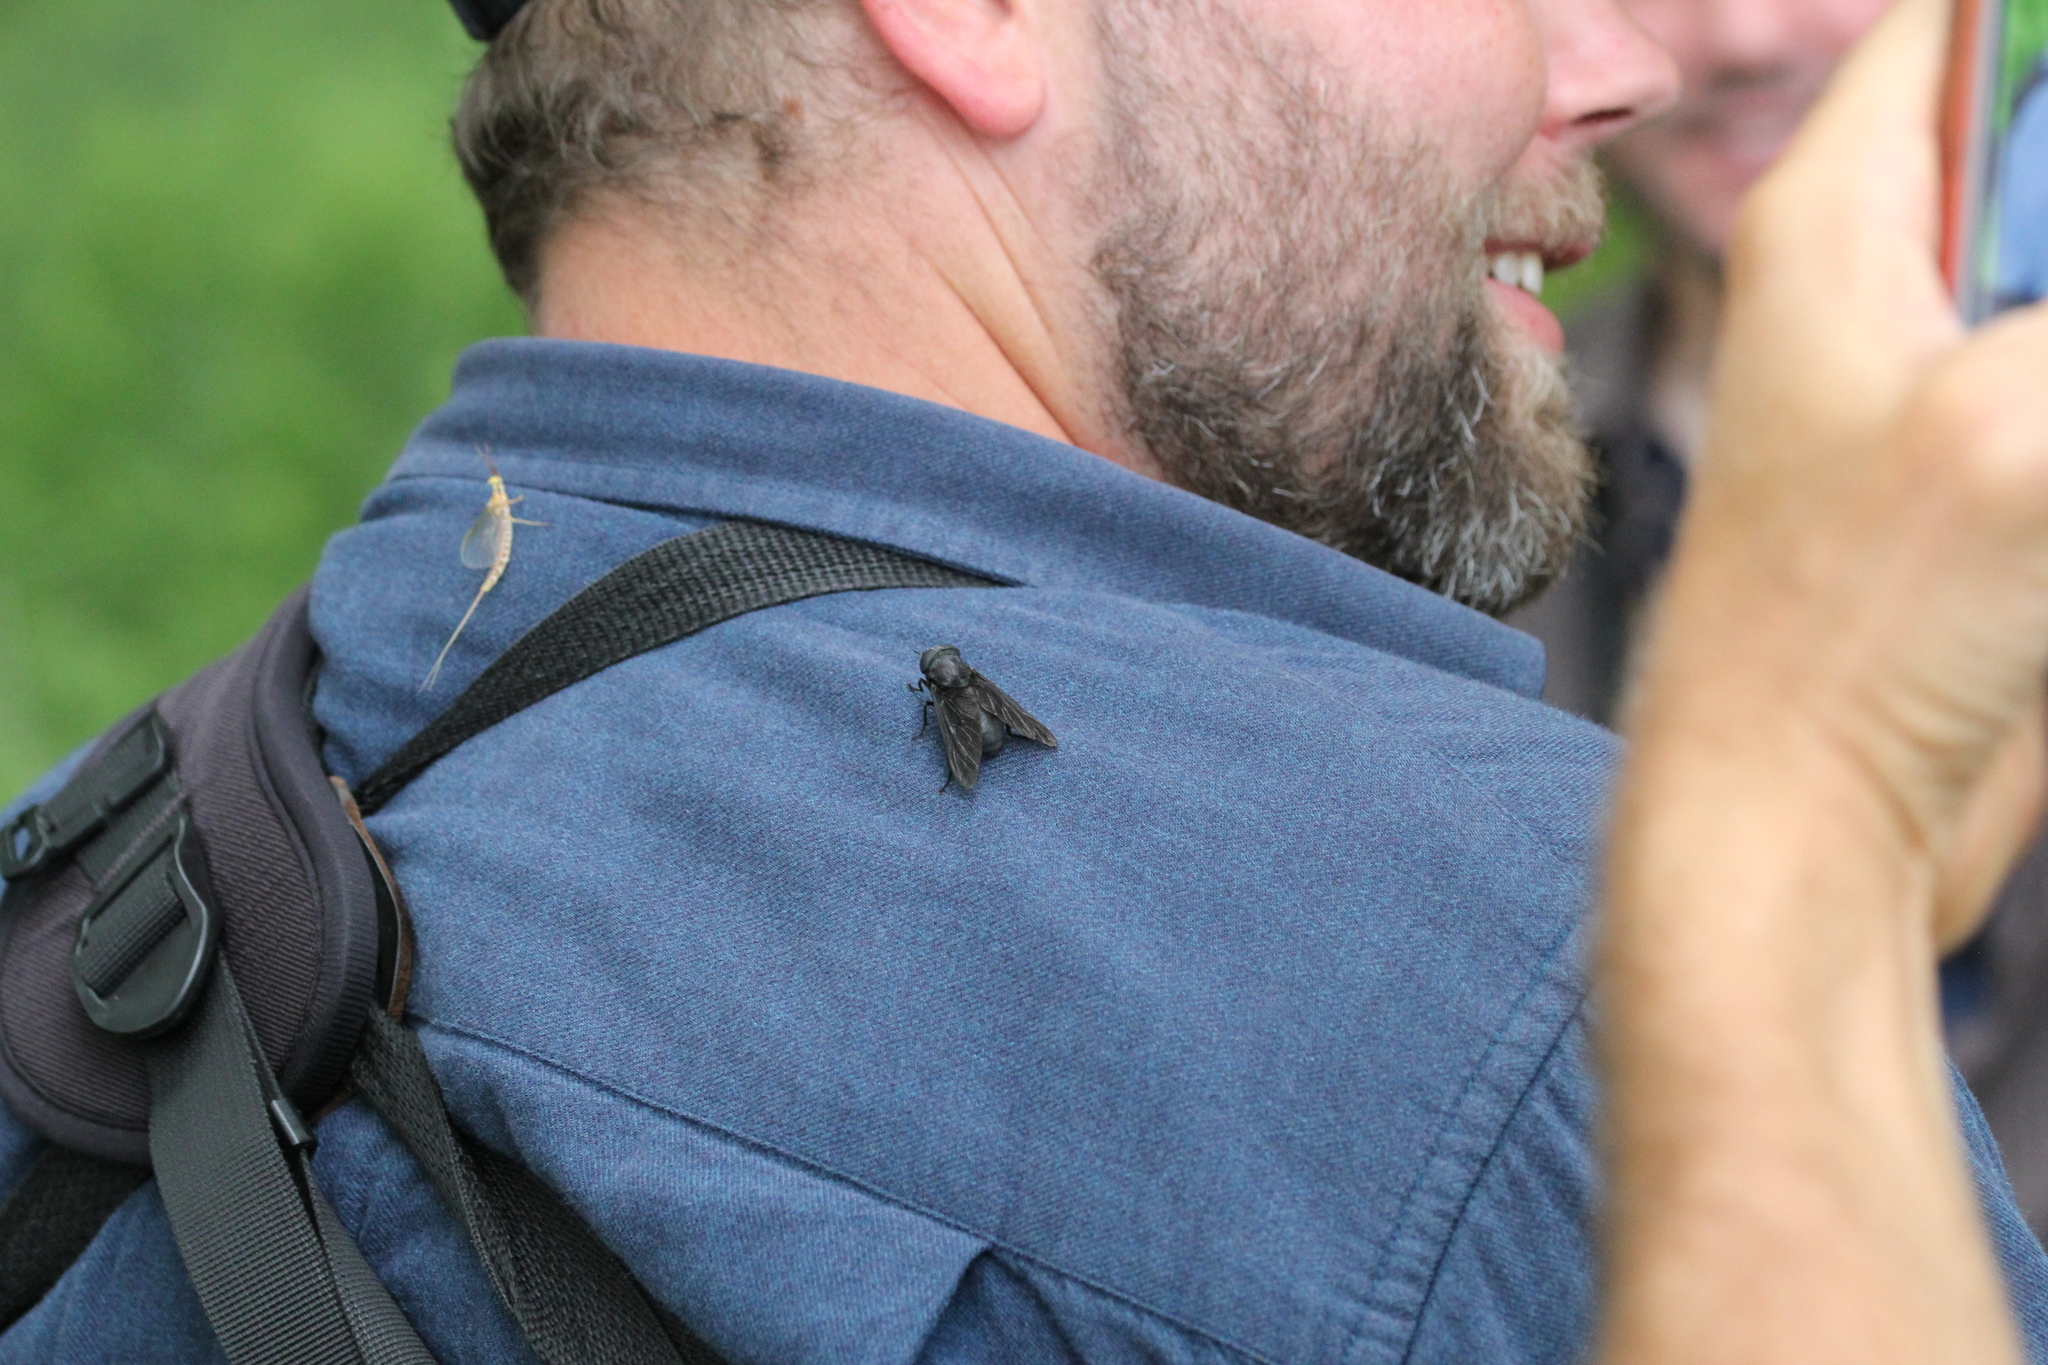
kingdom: Animalia
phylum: Arthropoda
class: Insecta
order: Diptera
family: Tabanidae
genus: Tabanus
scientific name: Tabanus atratus
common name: Black horse fly
